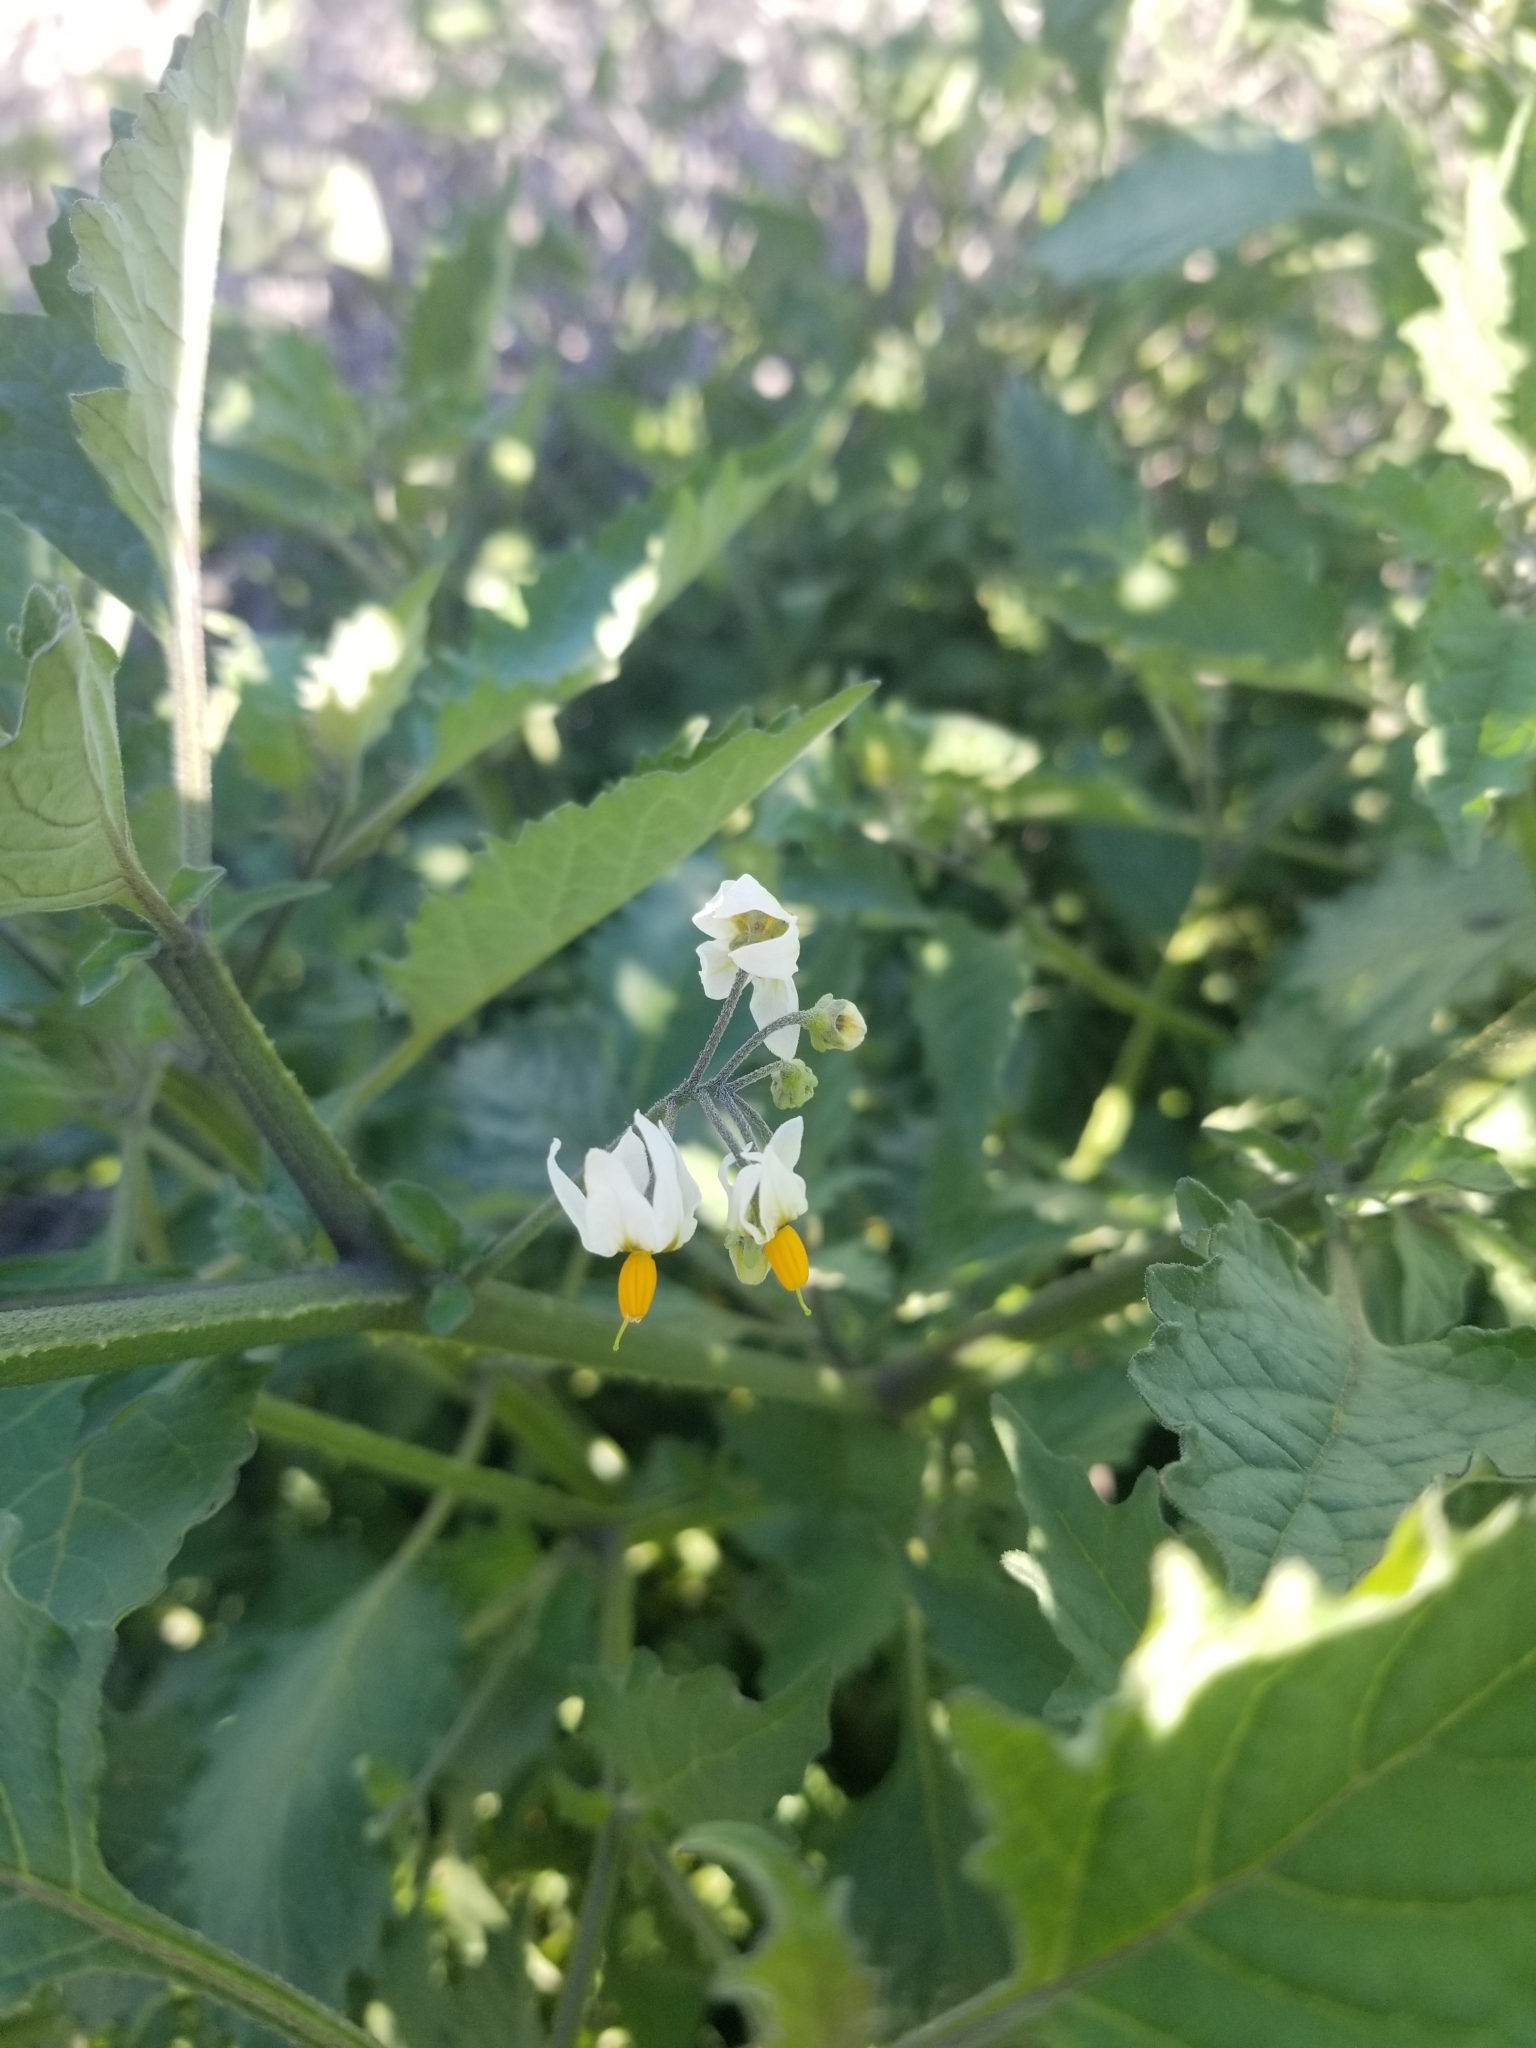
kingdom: Plantae
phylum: Tracheophyta
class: Magnoliopsida
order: Solanales
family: Solanaceae
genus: Solanum
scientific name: Solanum douglasii
